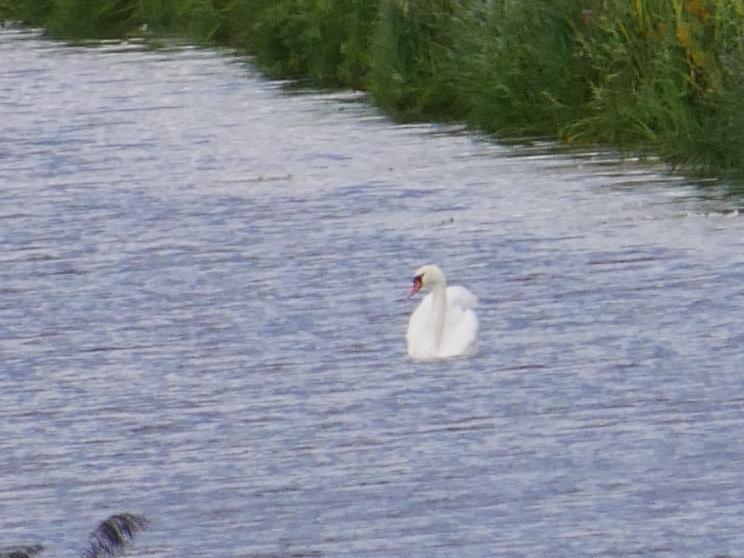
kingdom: Animalia
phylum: Chordata
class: Aves
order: Anseriformes
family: Anatidae
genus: Cygnus
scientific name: Cygnus olor
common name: Mute swan
